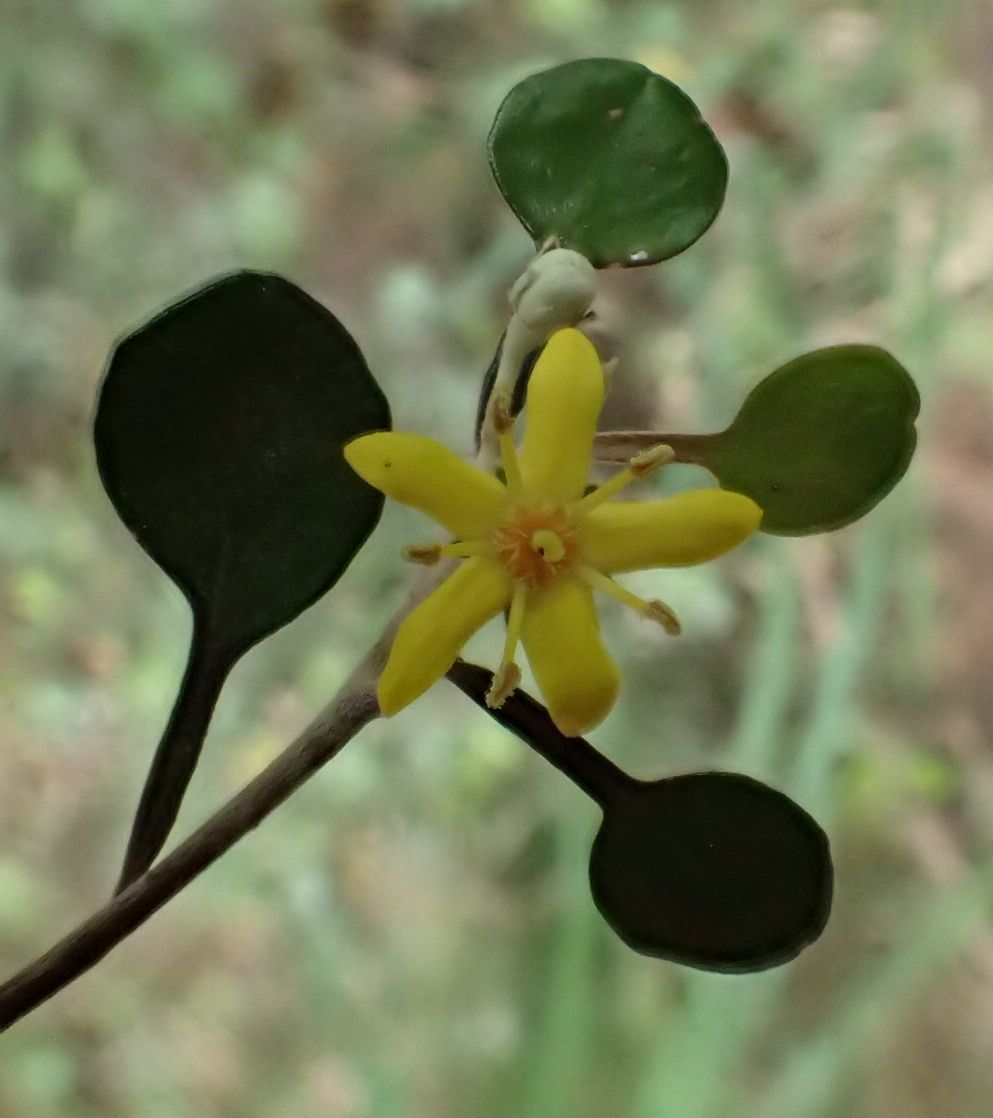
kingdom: Plantae
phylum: Tracheophyta
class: Magnoliopsida
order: Asterales
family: Argophyllaceae
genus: Corokia
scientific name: Corokia cotoneaster
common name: Wire nettingbush
